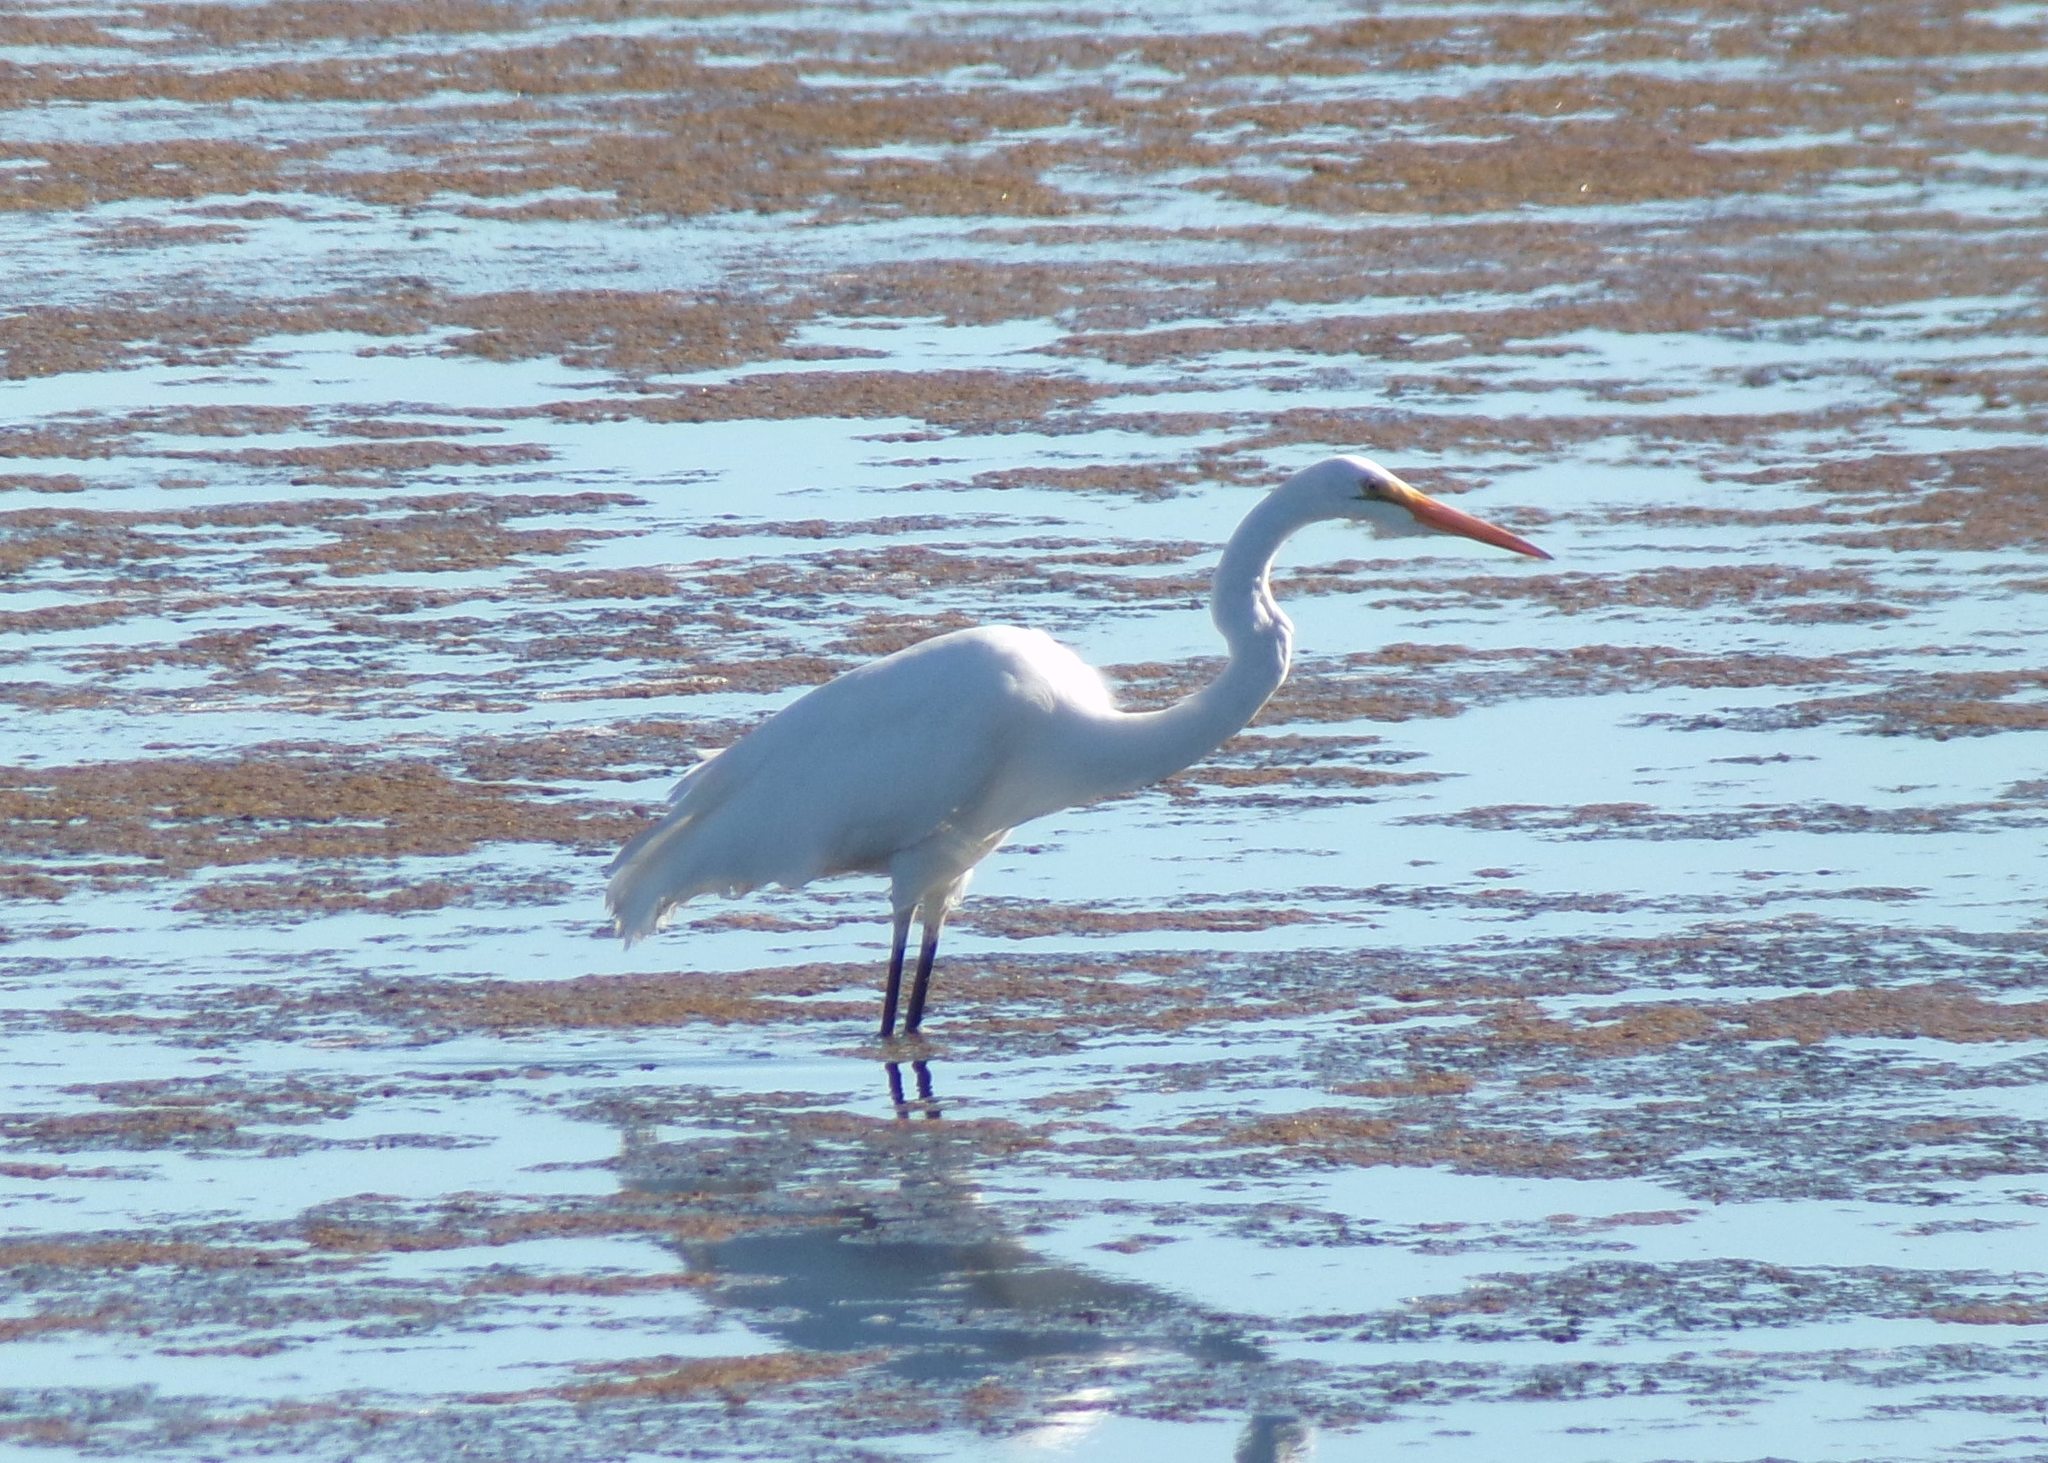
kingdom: Animalia
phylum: Chordata
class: Aves
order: Pelecaniformes
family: Ardeidae
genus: Ardea
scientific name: Ardea alba
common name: Great egret
